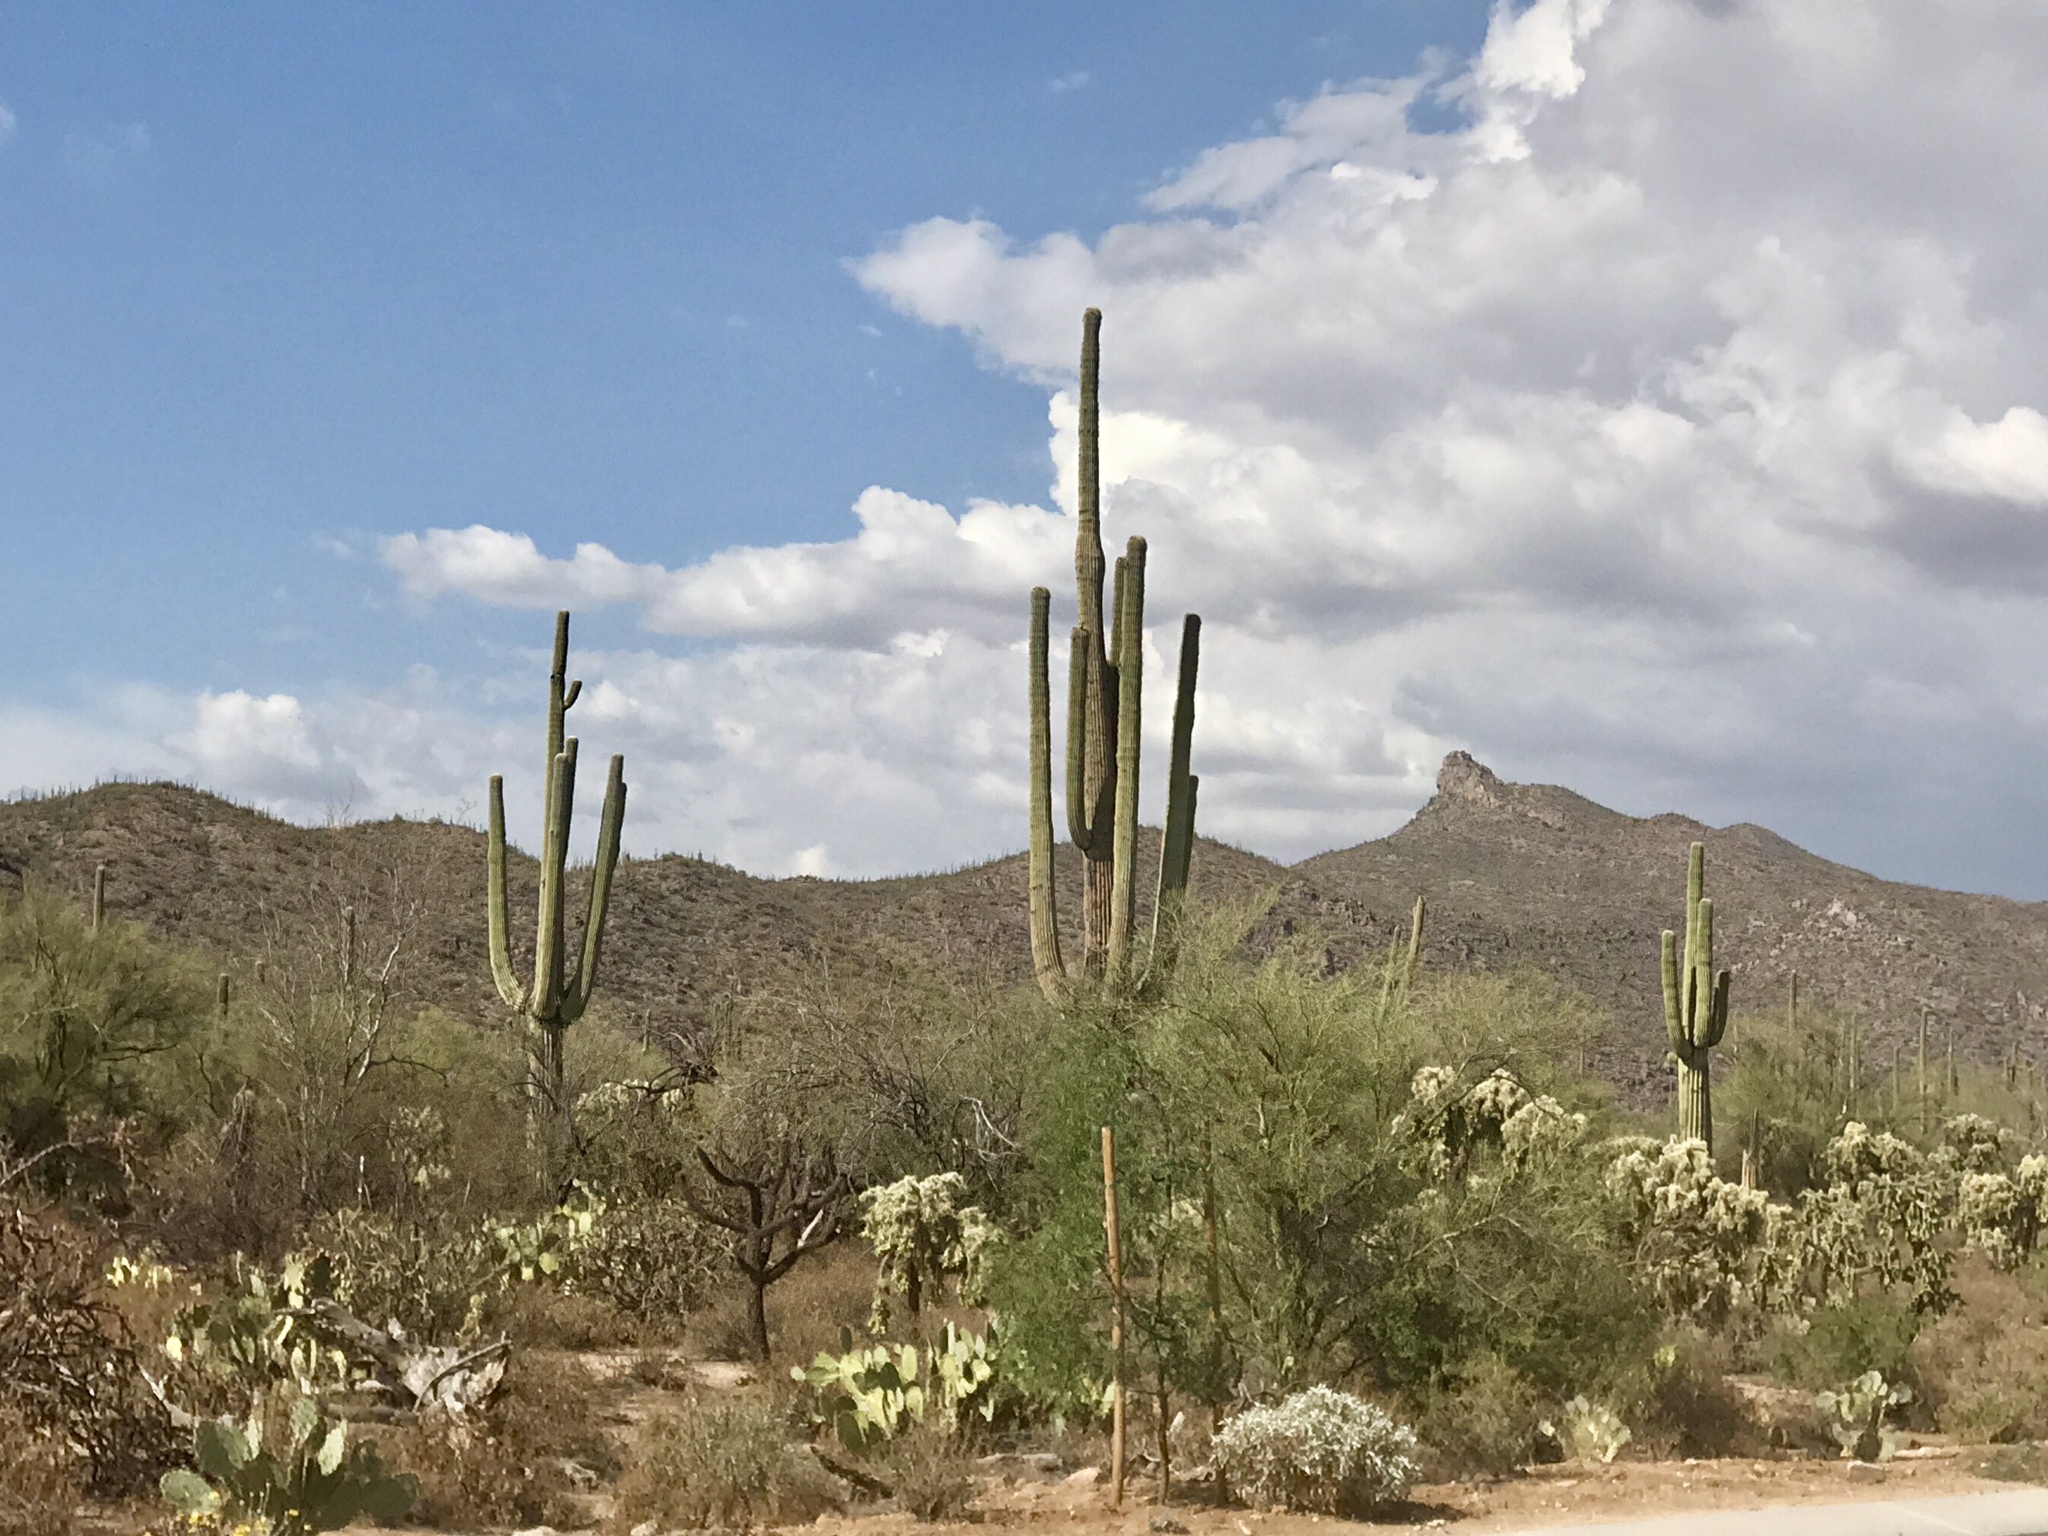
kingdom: Plantae
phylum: Tracheophyta
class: Magnoliopsida
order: Caryophyllales
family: Cactaceae
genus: Carnegiea
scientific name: Carnegiea gigantea
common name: Saguaro
